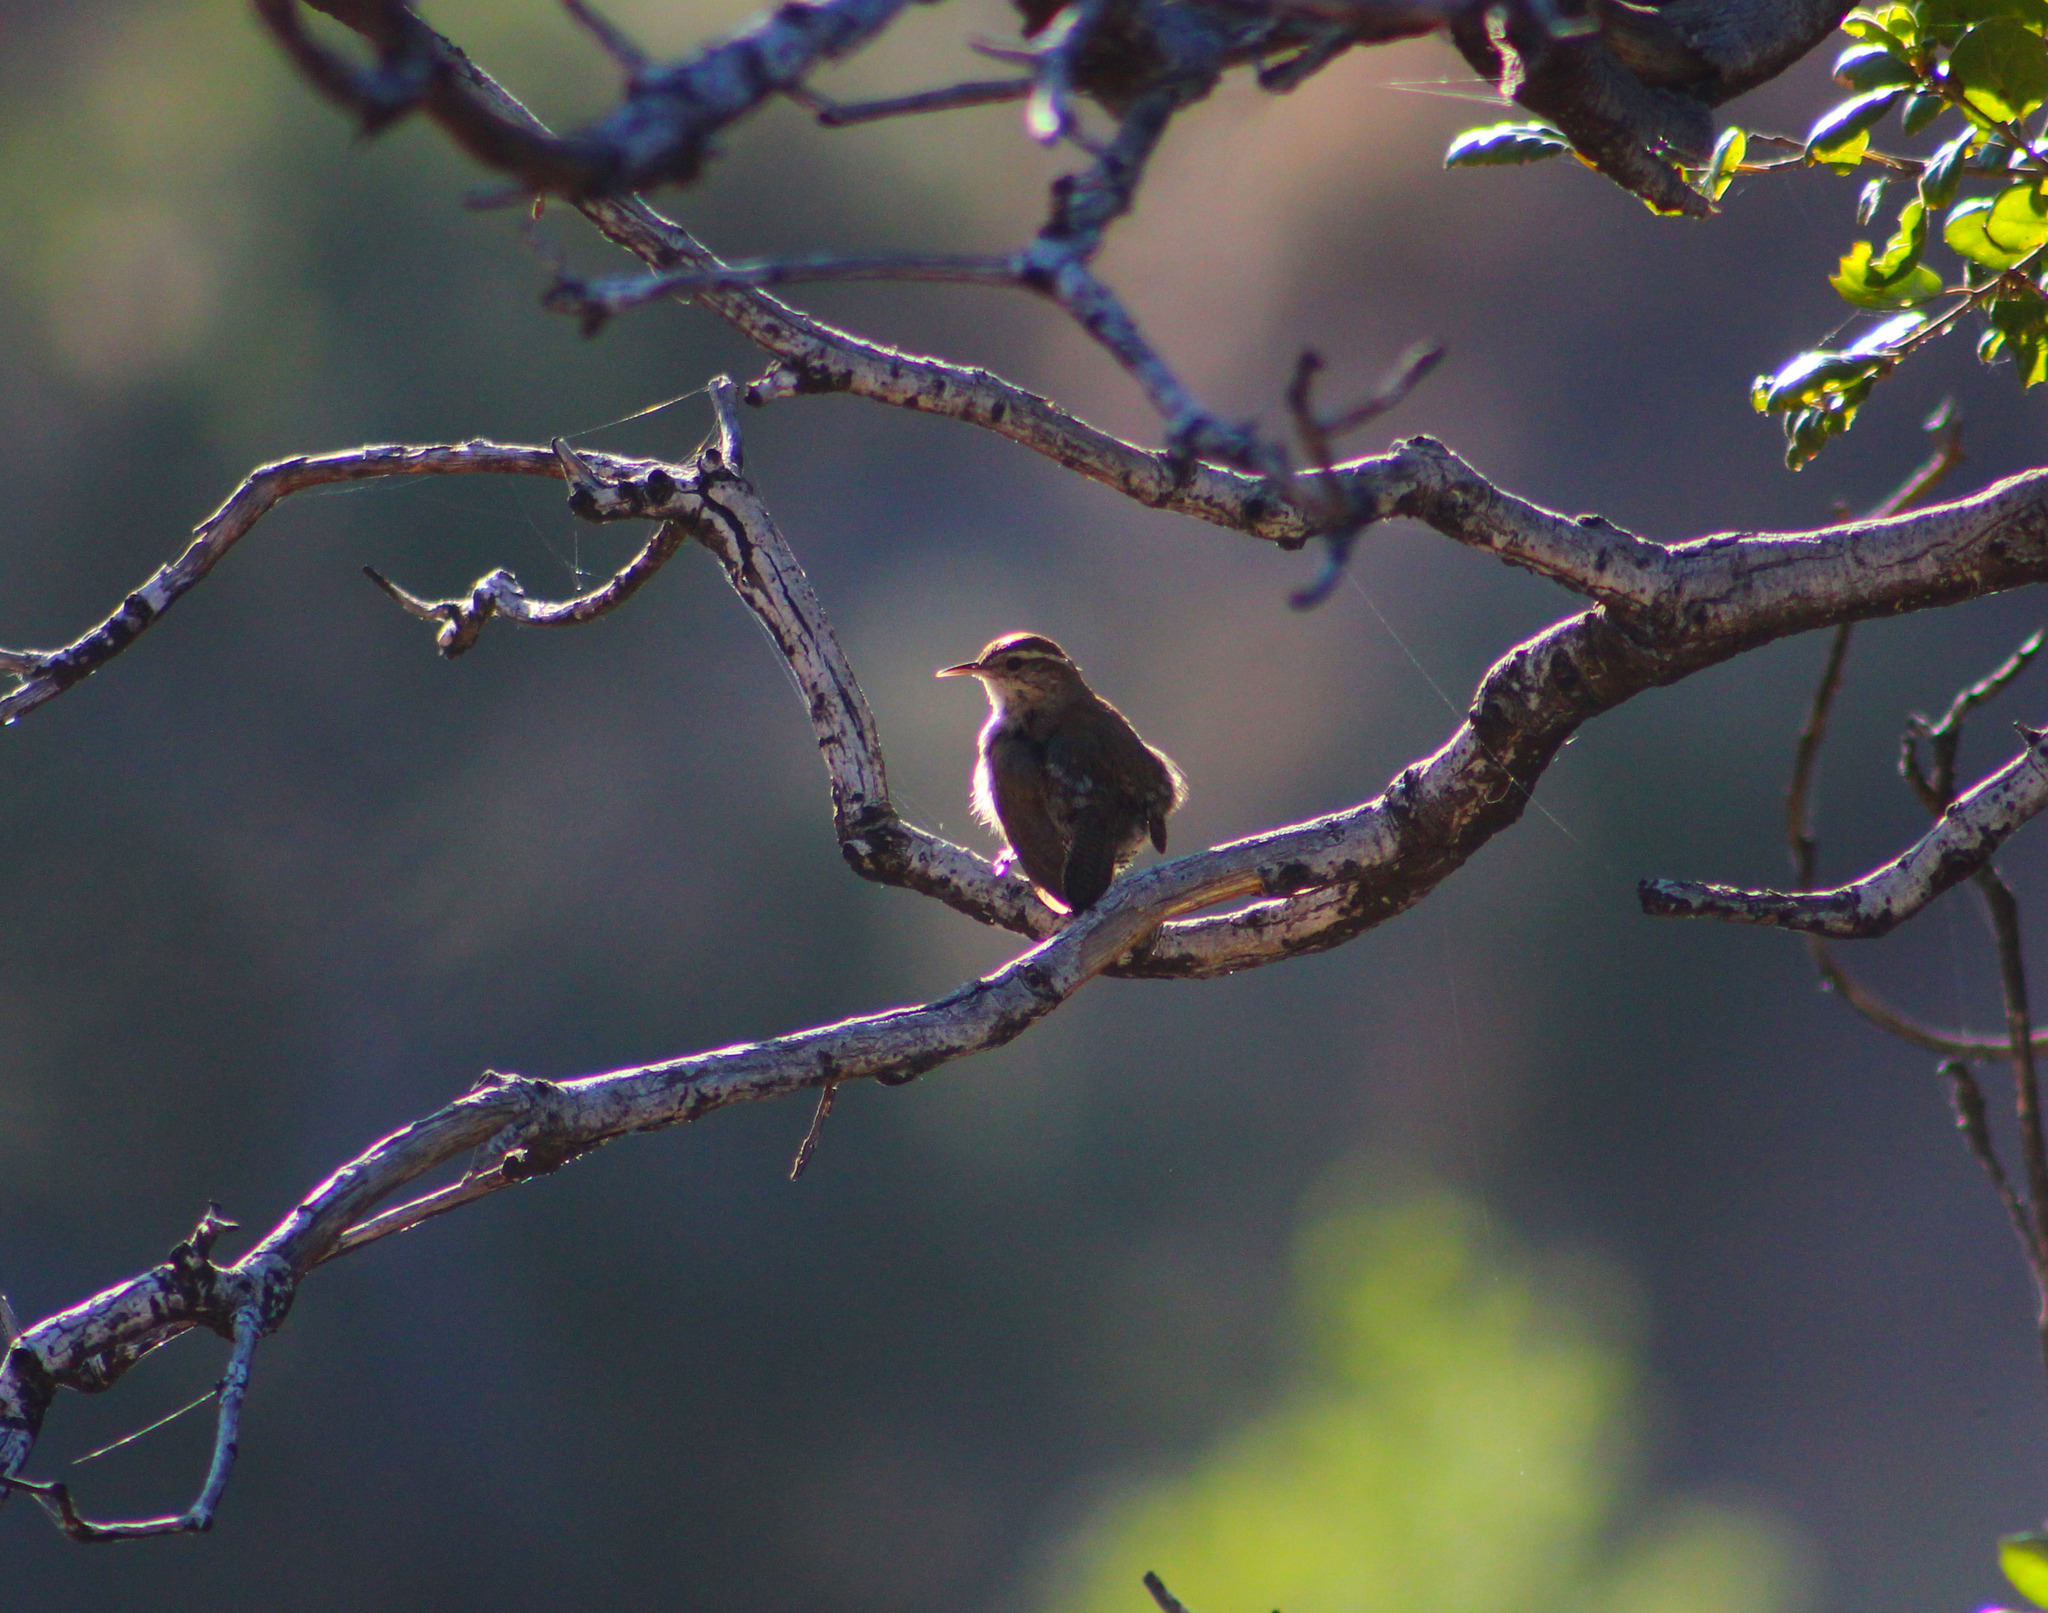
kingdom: Animalia
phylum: Chordata
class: Aves
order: Passeriformes
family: Troglodytidae
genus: Thryomanes
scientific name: Thryomanes bewickii
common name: Bewick's wren
